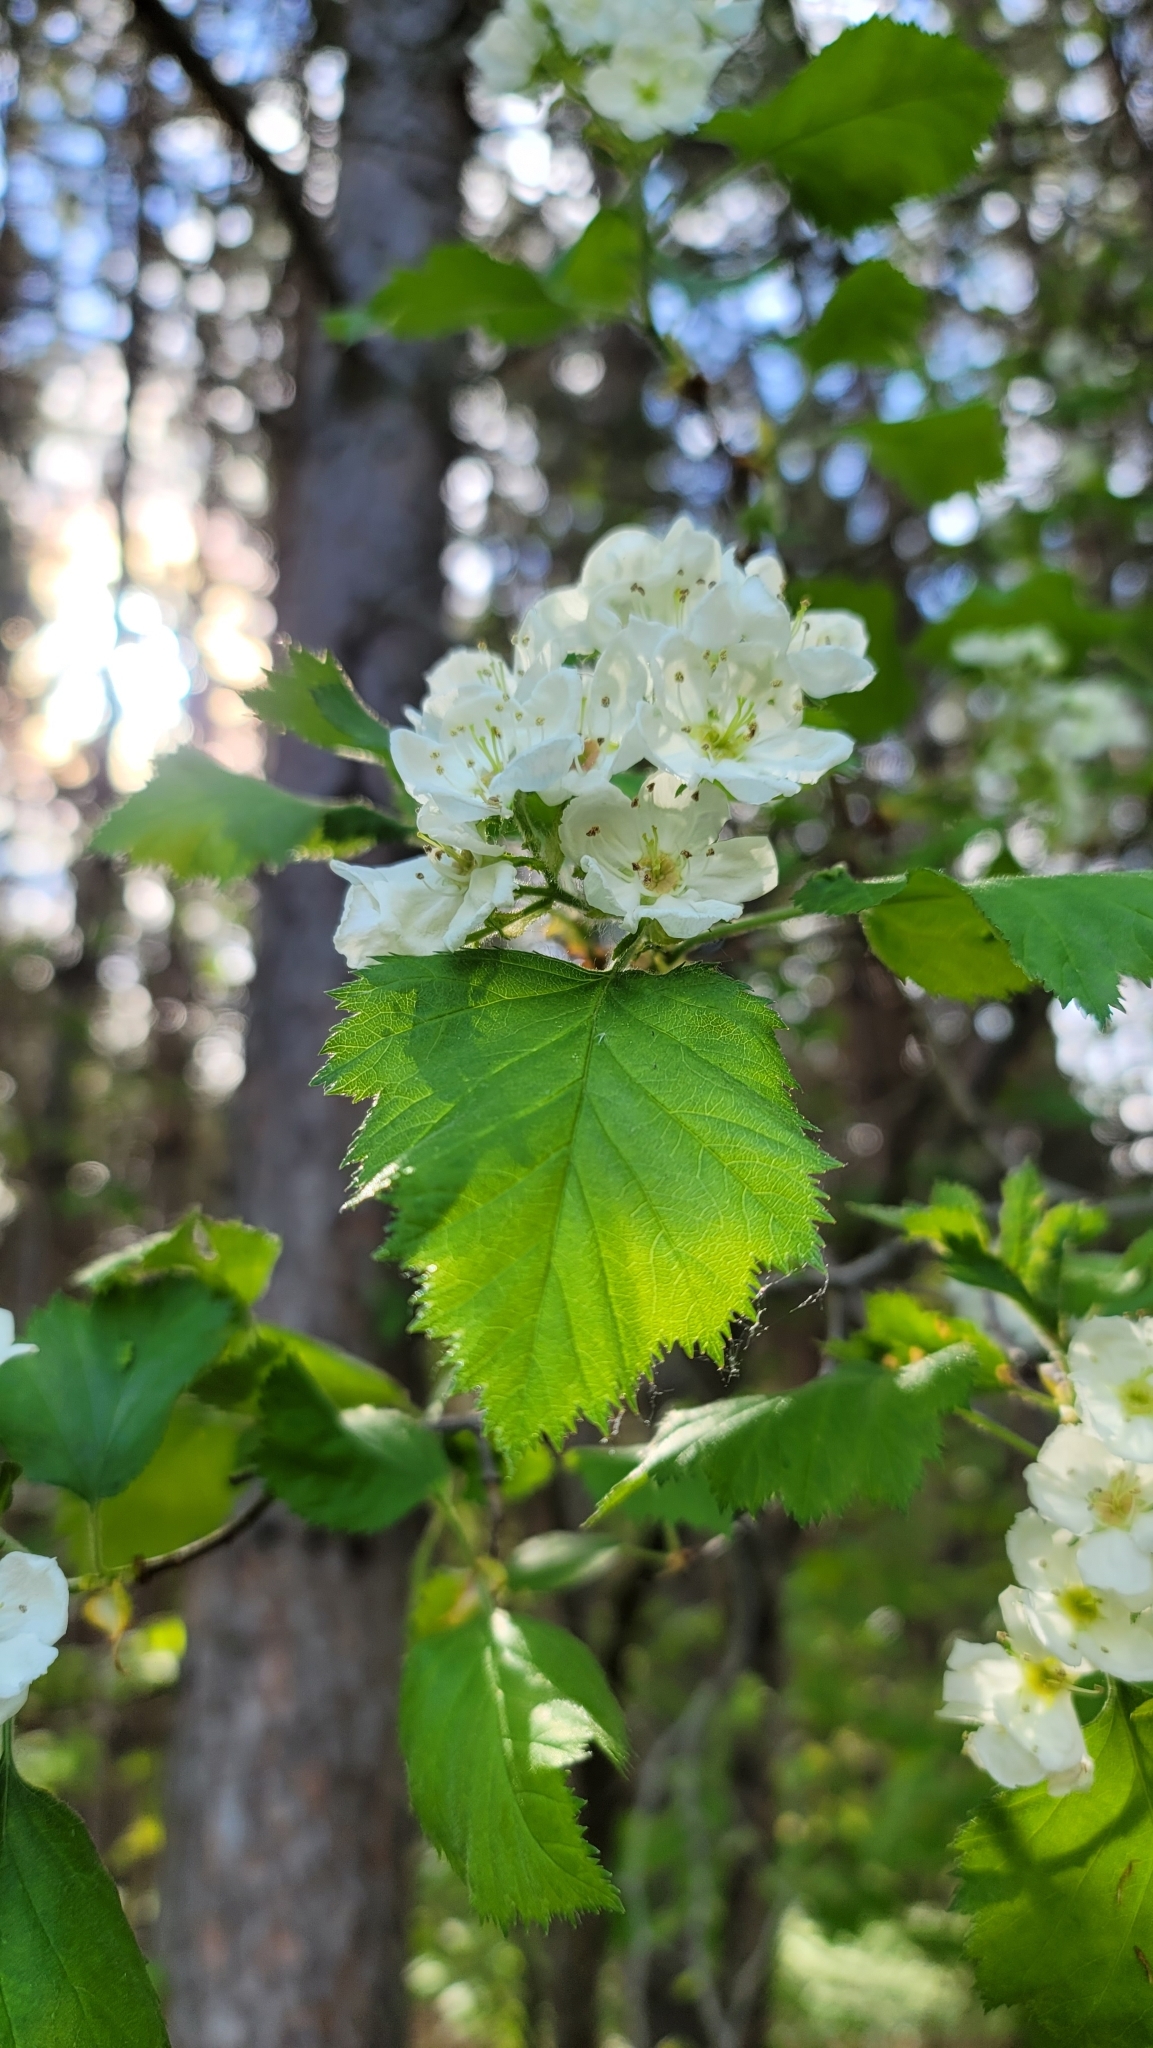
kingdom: Plantae
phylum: Tracheophyta
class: Magnoliopsida
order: Rosales
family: Rosaceae
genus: Crataegus
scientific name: Crataegus submollis
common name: Hairy cockspurthorn
